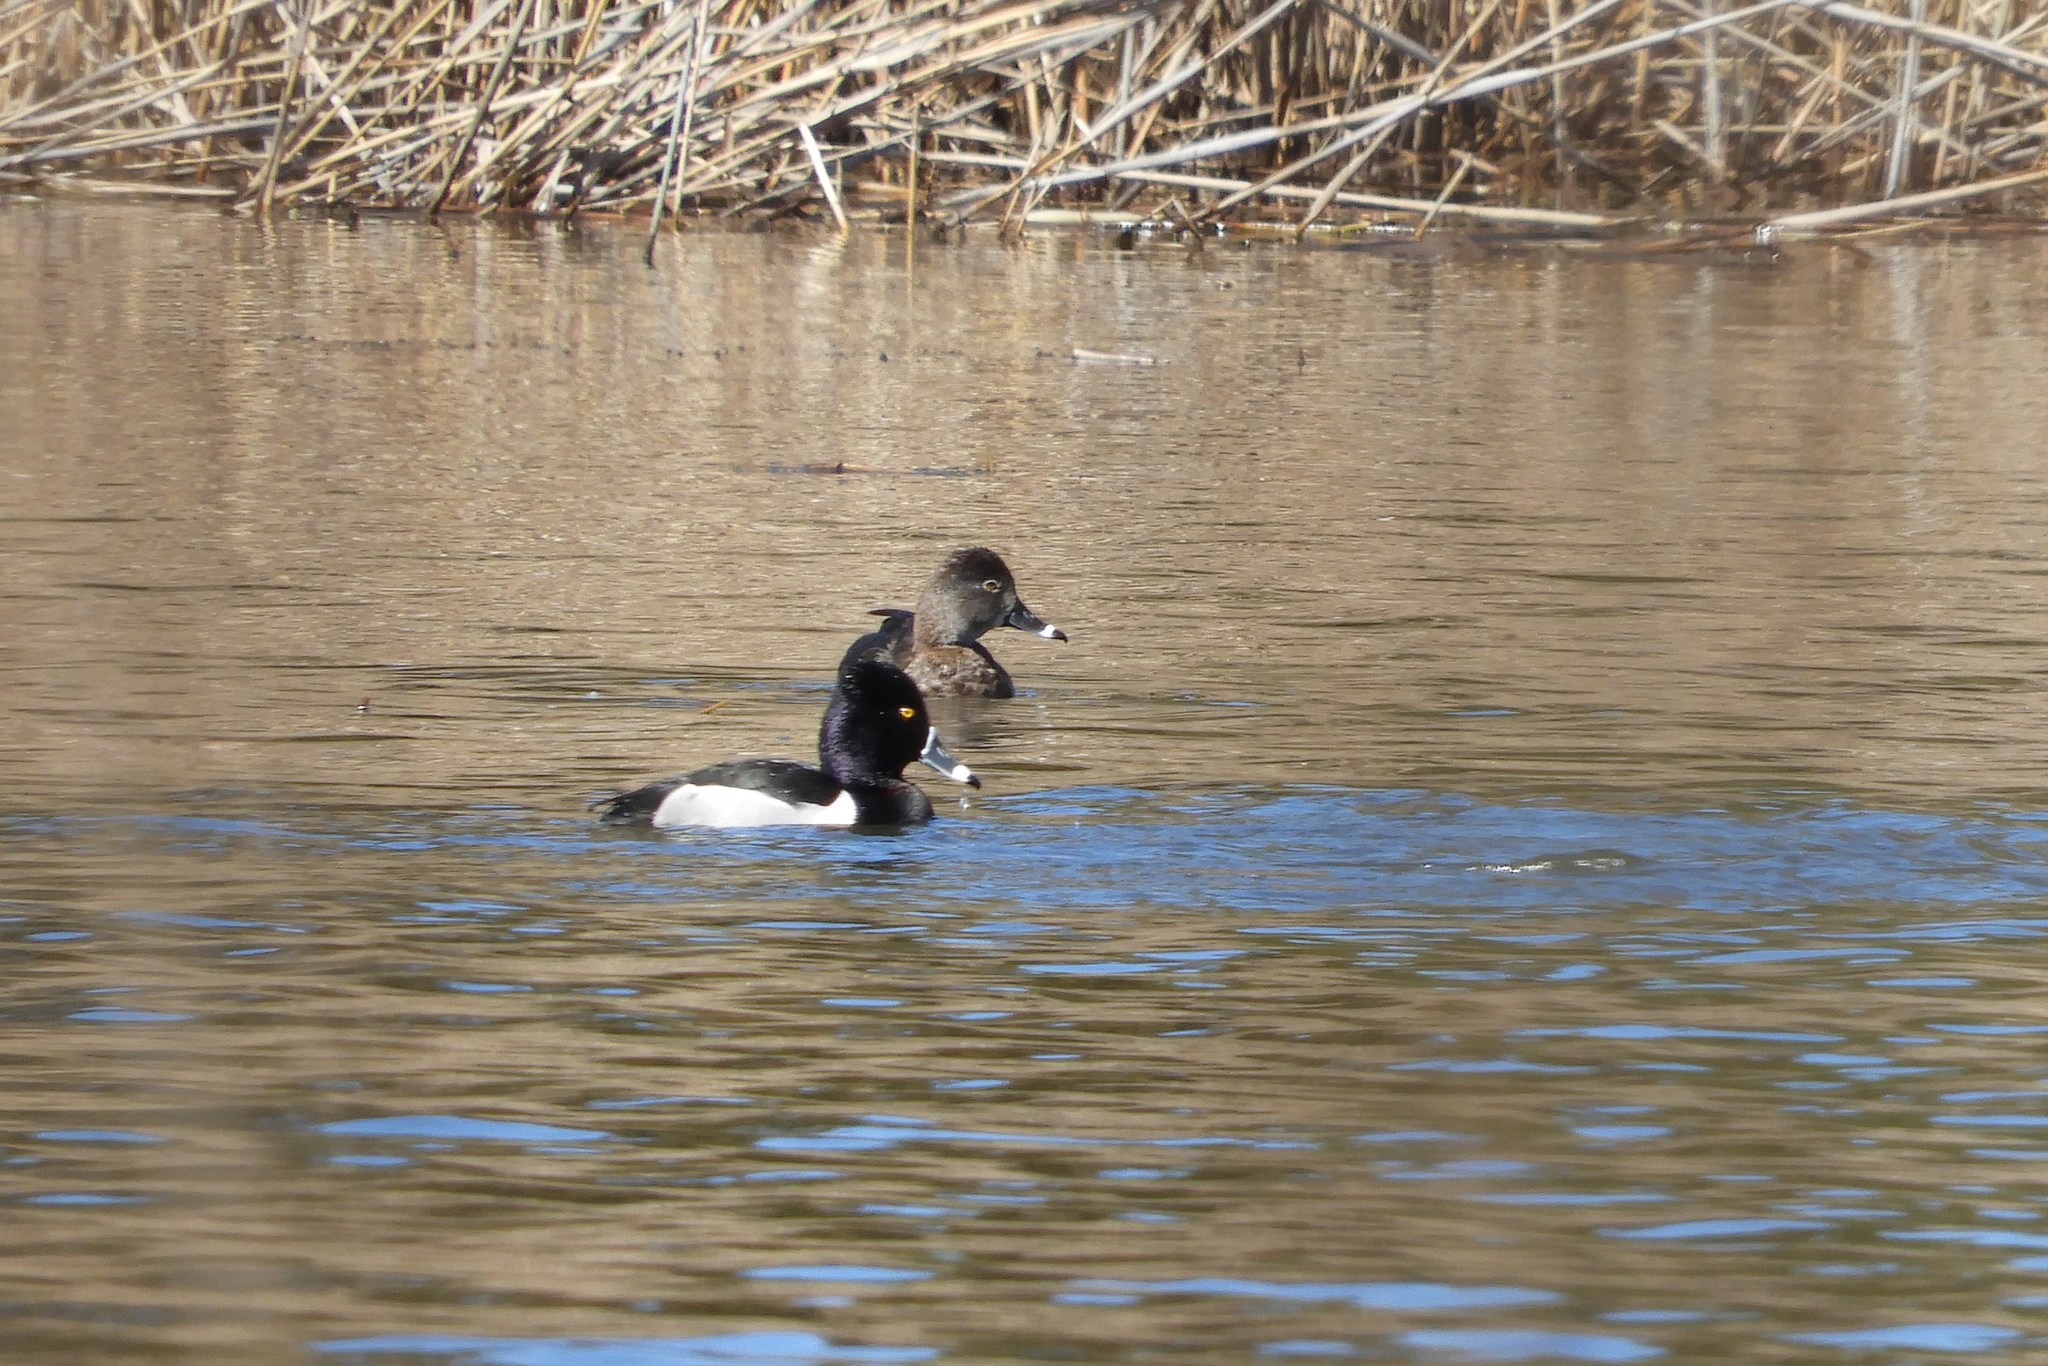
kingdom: Animalia
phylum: Chordata
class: Aves
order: Anseriformes
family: Anatidae
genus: Aythya
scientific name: Aythya collaris
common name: Ring-necked duck
